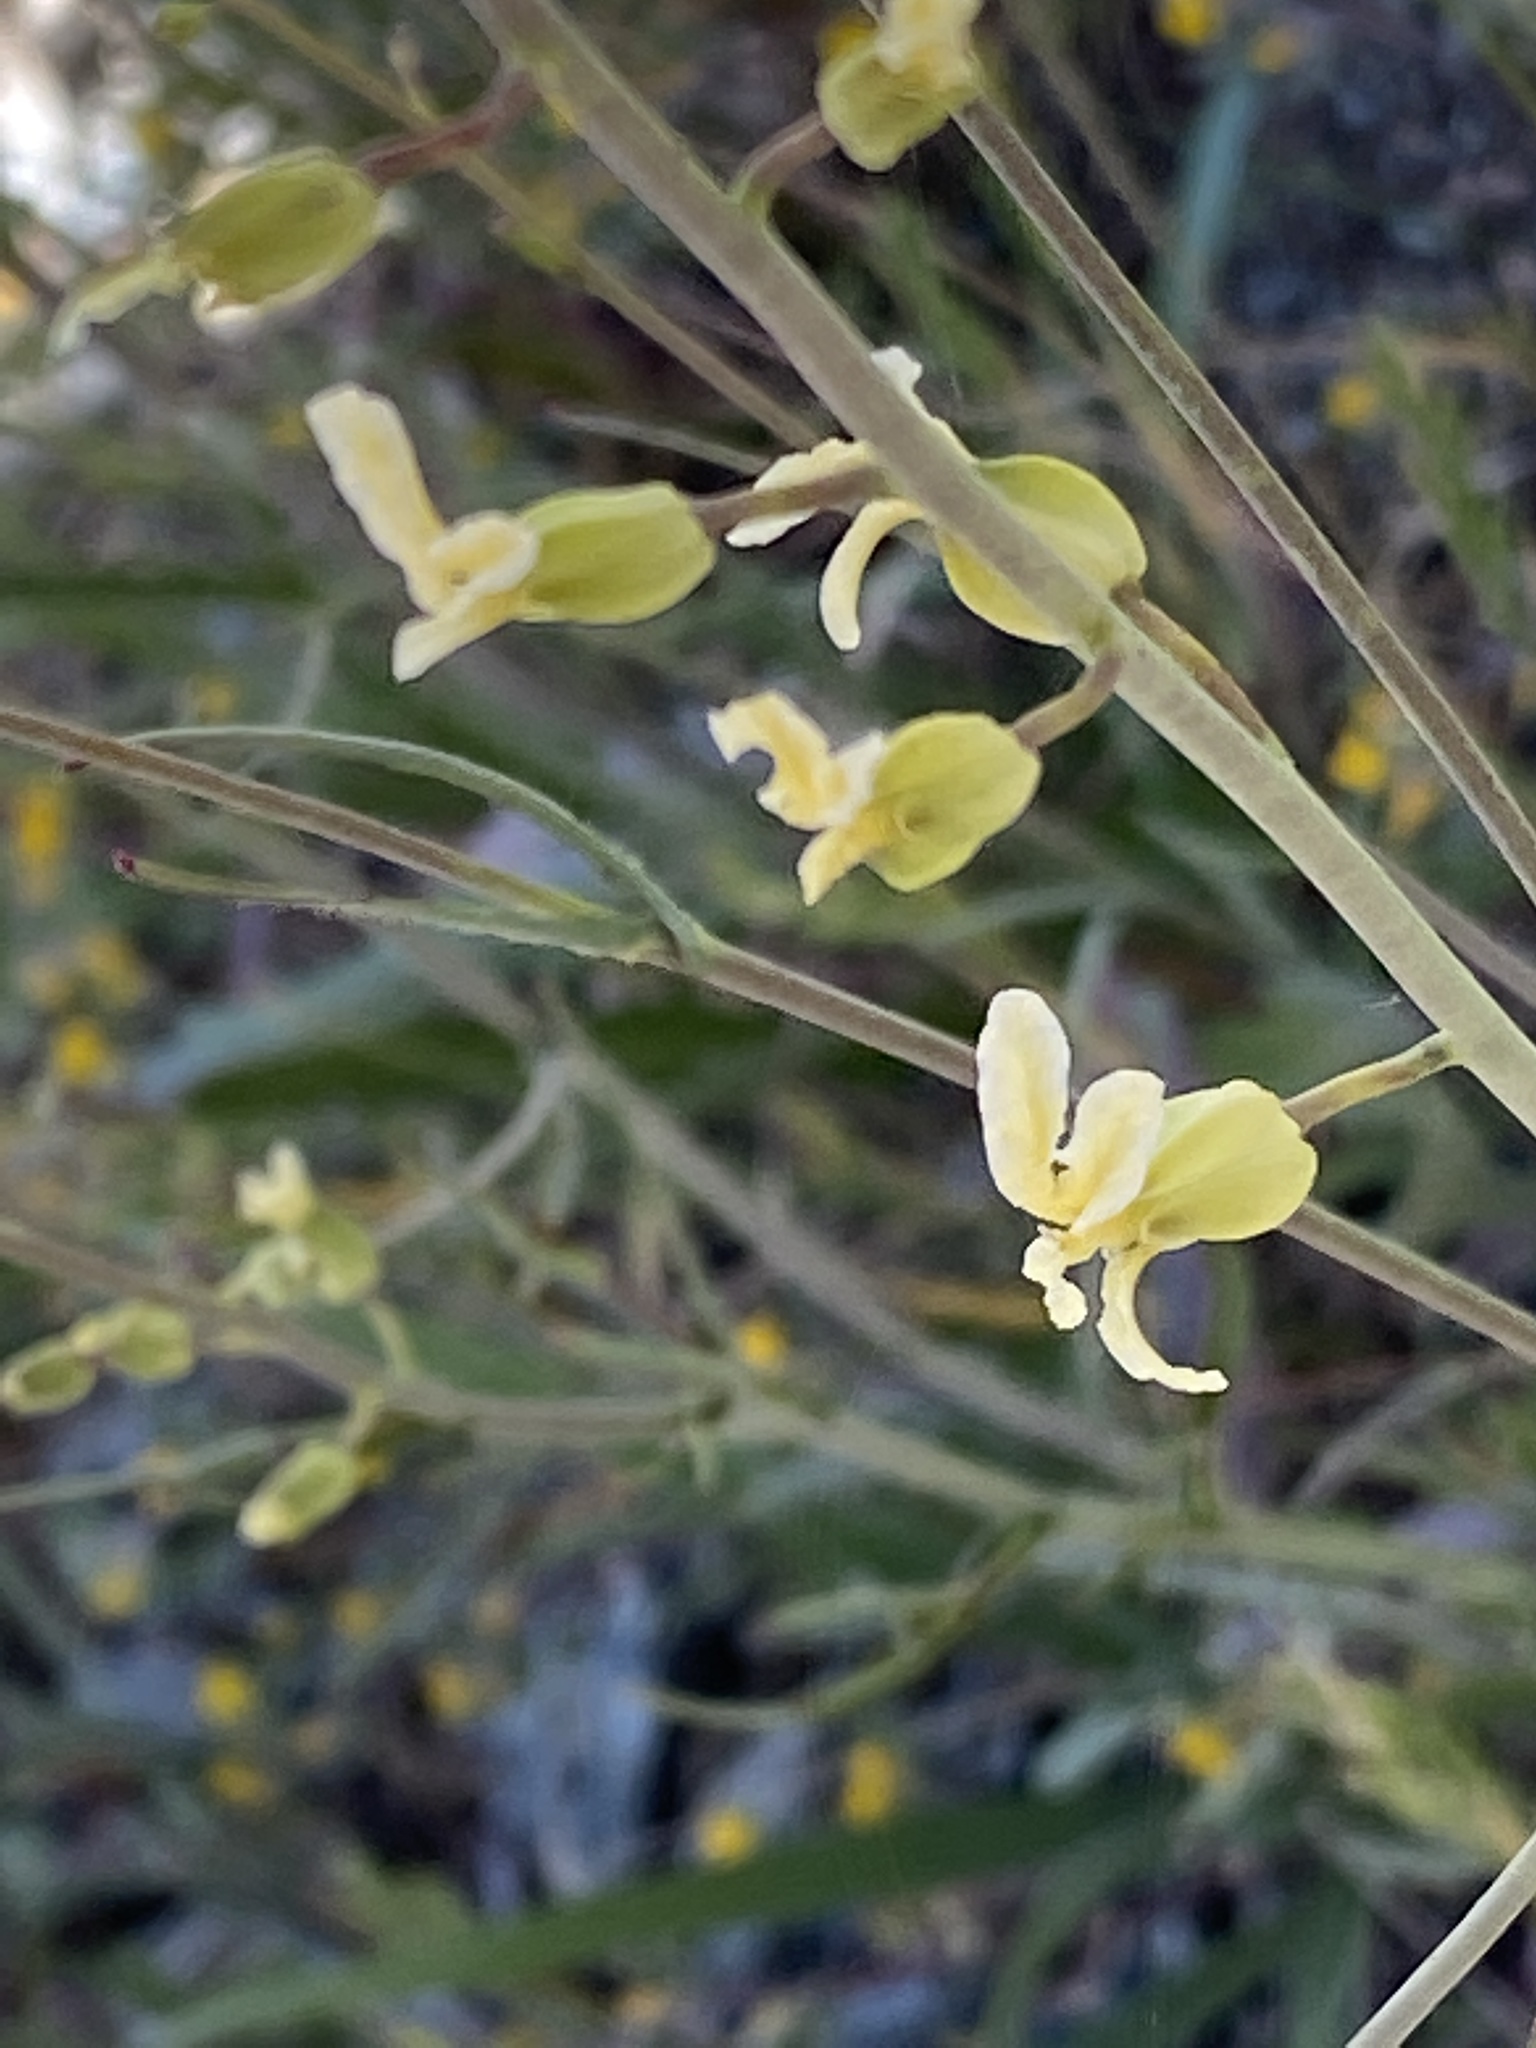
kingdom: Plantae
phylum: Tracheophyta
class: Magnoliopsida
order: Brassicales
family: Brassicaceae
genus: Streptanthus
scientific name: Streptanthus glandulosus
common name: Jewel-flower
